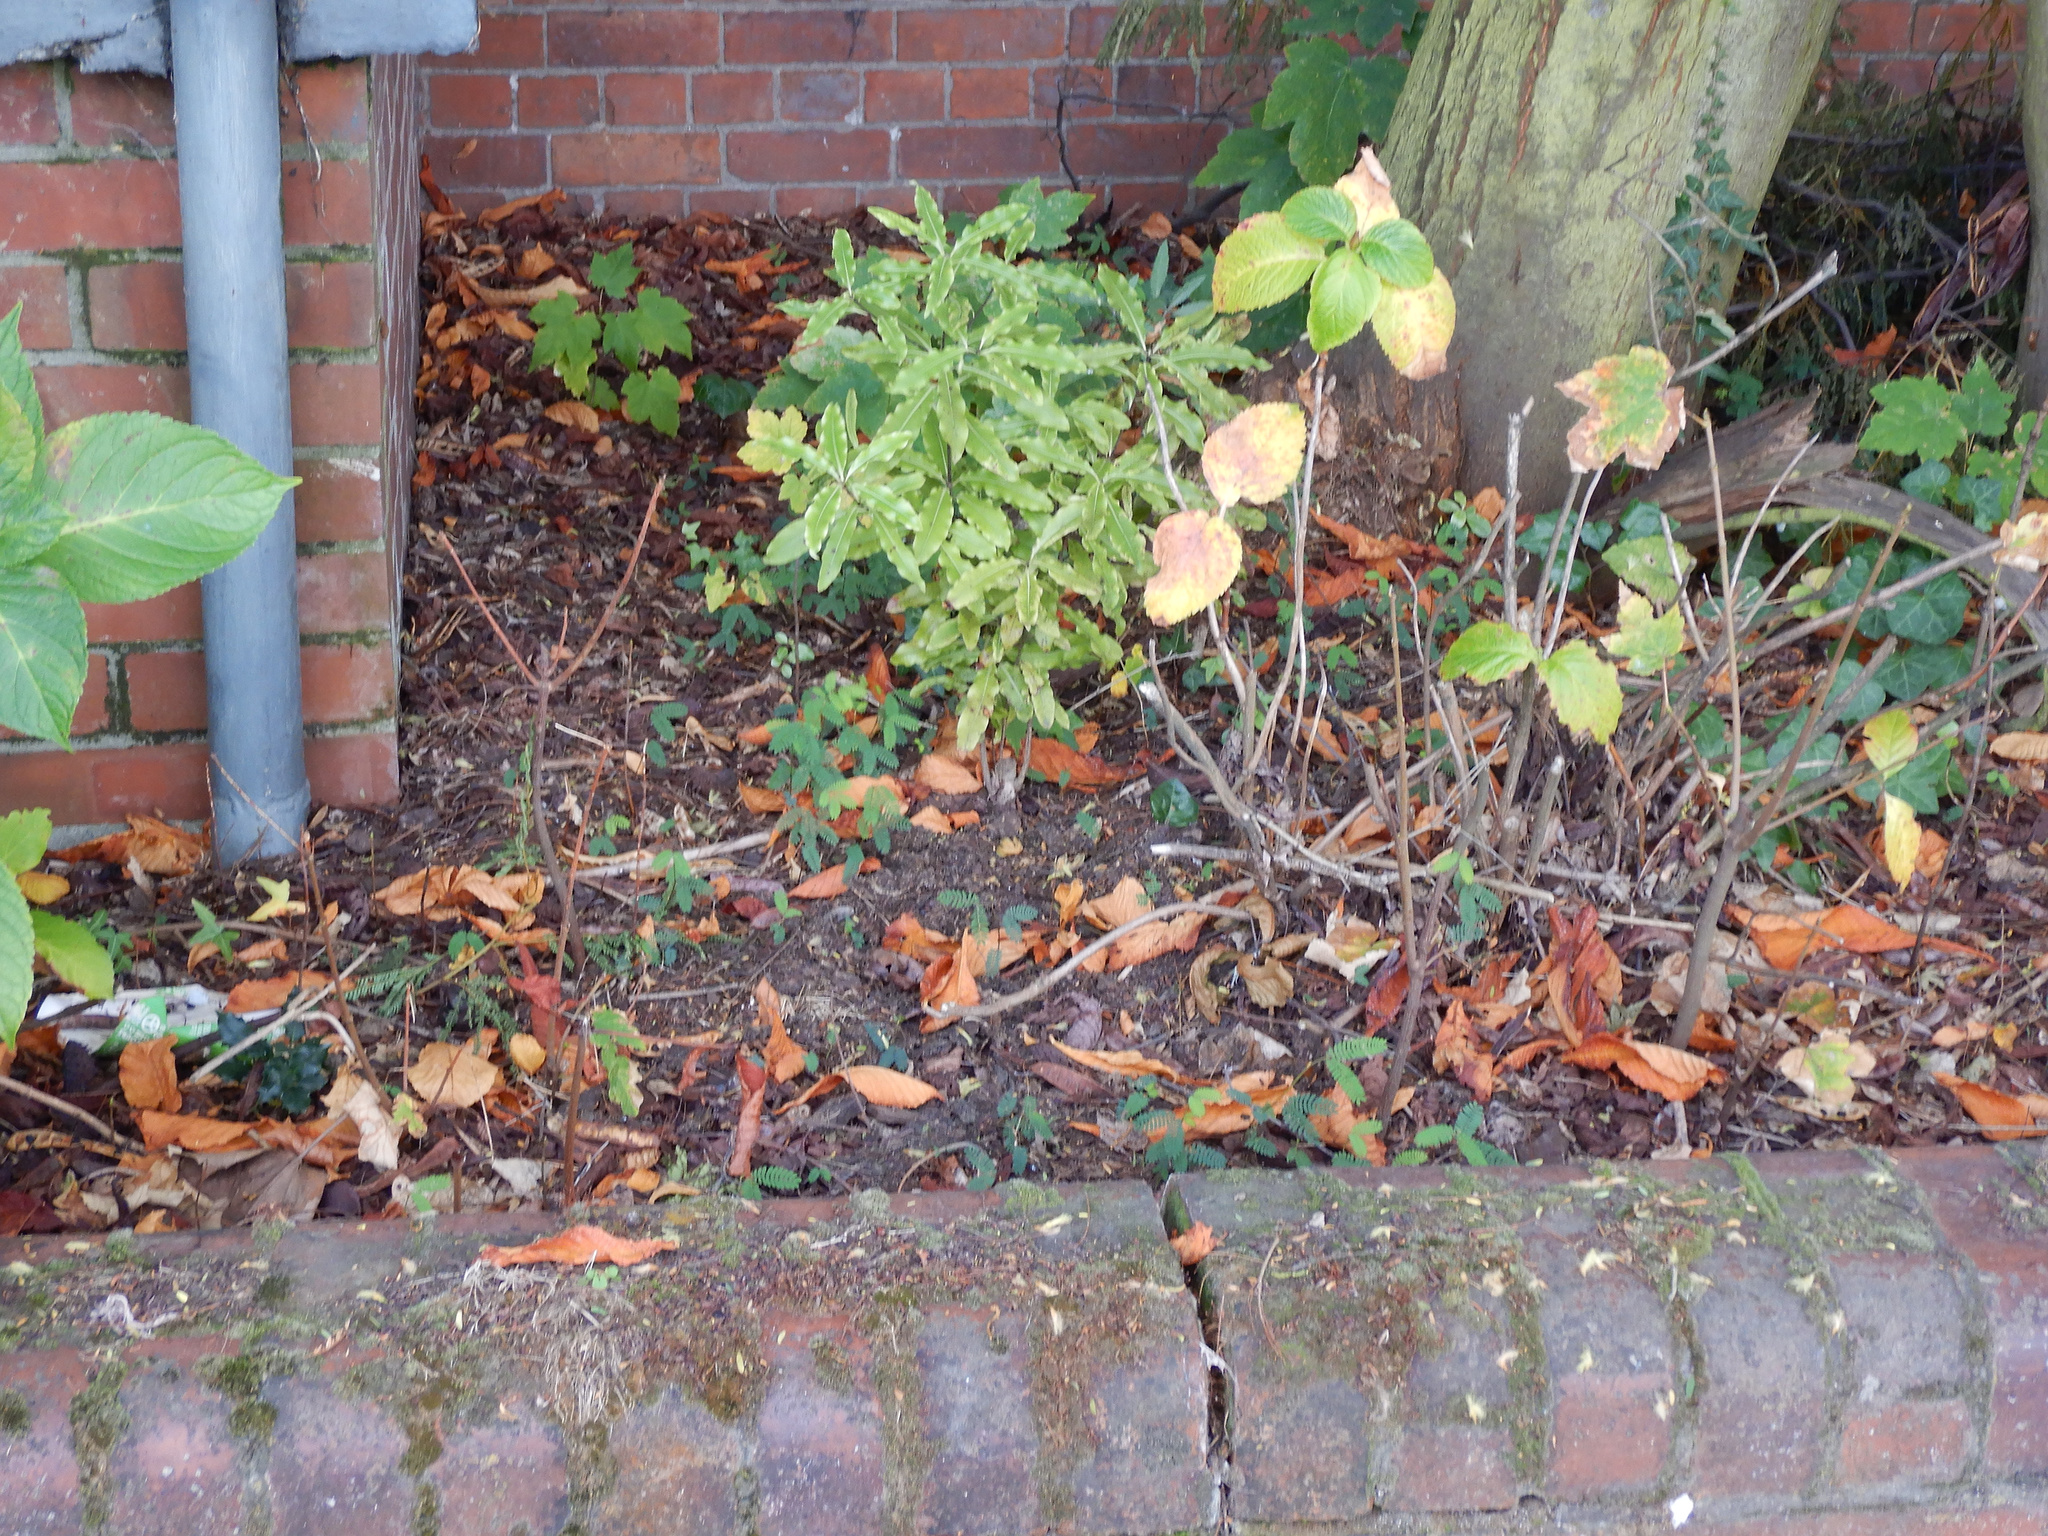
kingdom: Plantae
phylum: Tracheophyta
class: Magnoliopsida
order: Sapindales
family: Sapindaceae
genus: Acer
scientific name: Acer pseudoplatanus
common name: Sycamore
